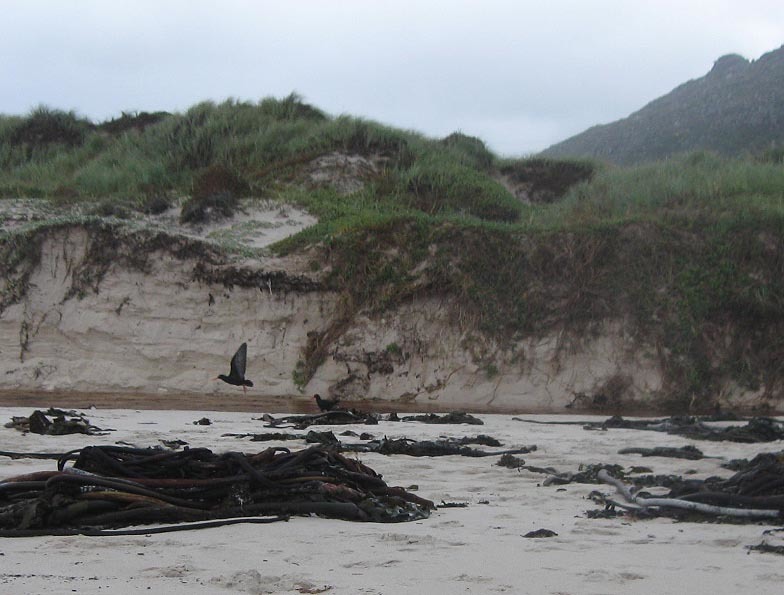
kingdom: Animalia
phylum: Chordata
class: Aves
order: Charadriiformes
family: Haematopodidae
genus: Haematopus
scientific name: Haematopus moquini
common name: African oystercatcher
